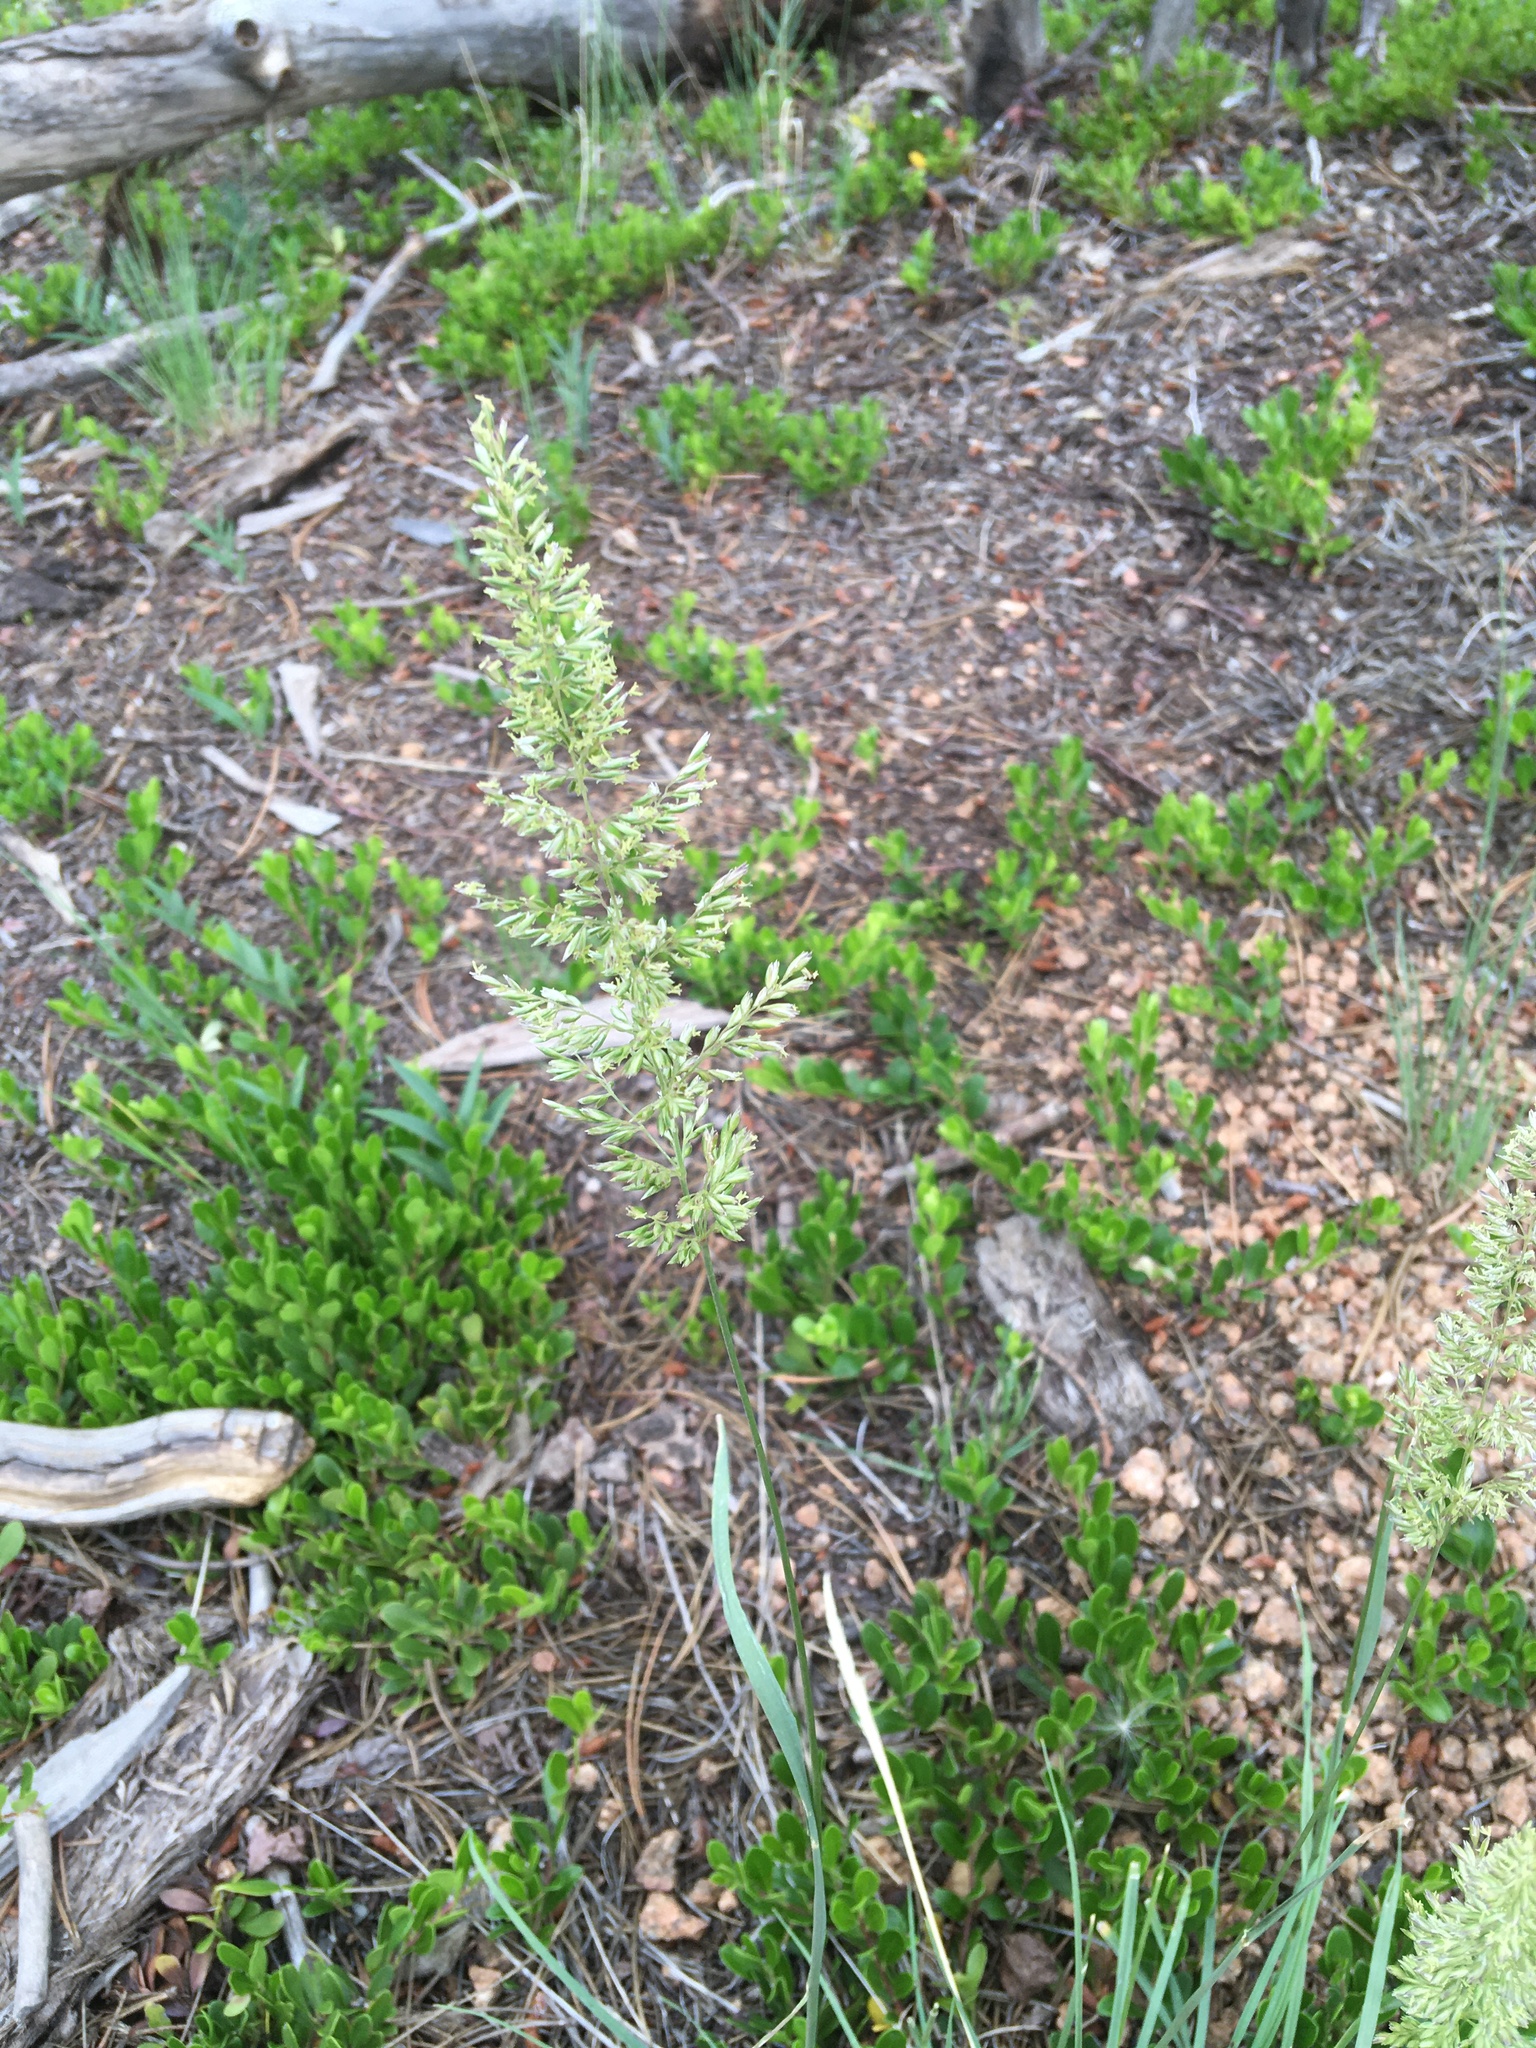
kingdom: Plantae
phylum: Tracheophyta
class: Liliopsida
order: Poales
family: Poaceae
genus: Koeleria
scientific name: Koeleria macrantha
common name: Crested hair-grass
